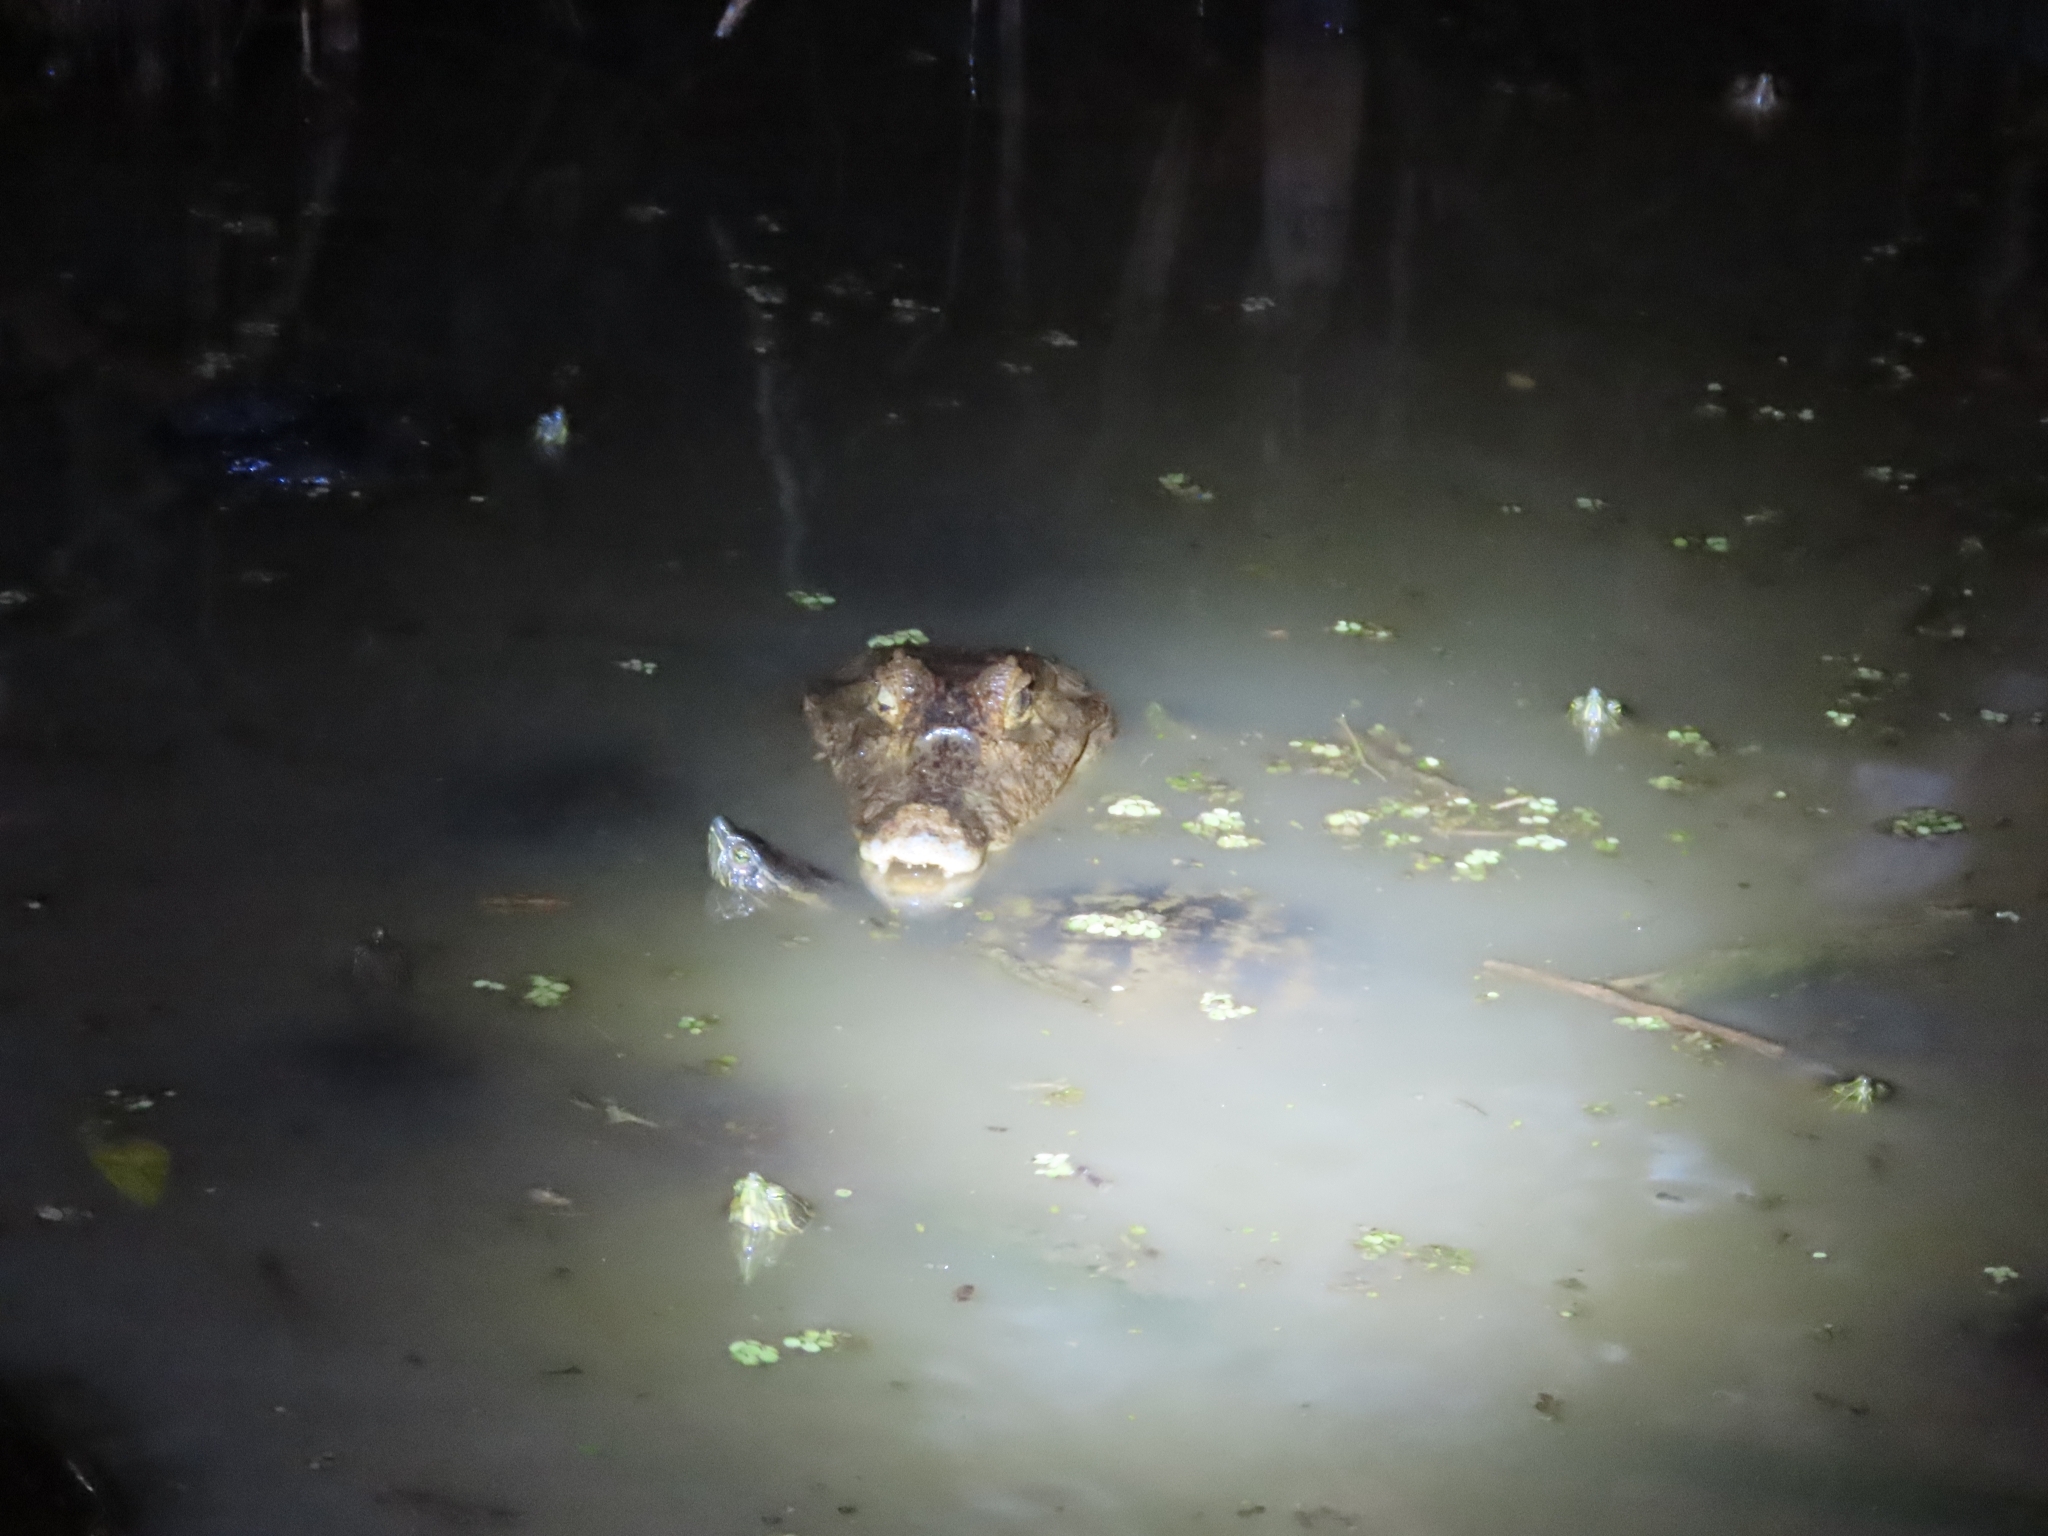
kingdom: Animalia
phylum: Chordata
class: Crocodylia
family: Alligatoridae
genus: Caiman
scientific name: Caiman crocodilus
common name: Common caiman
